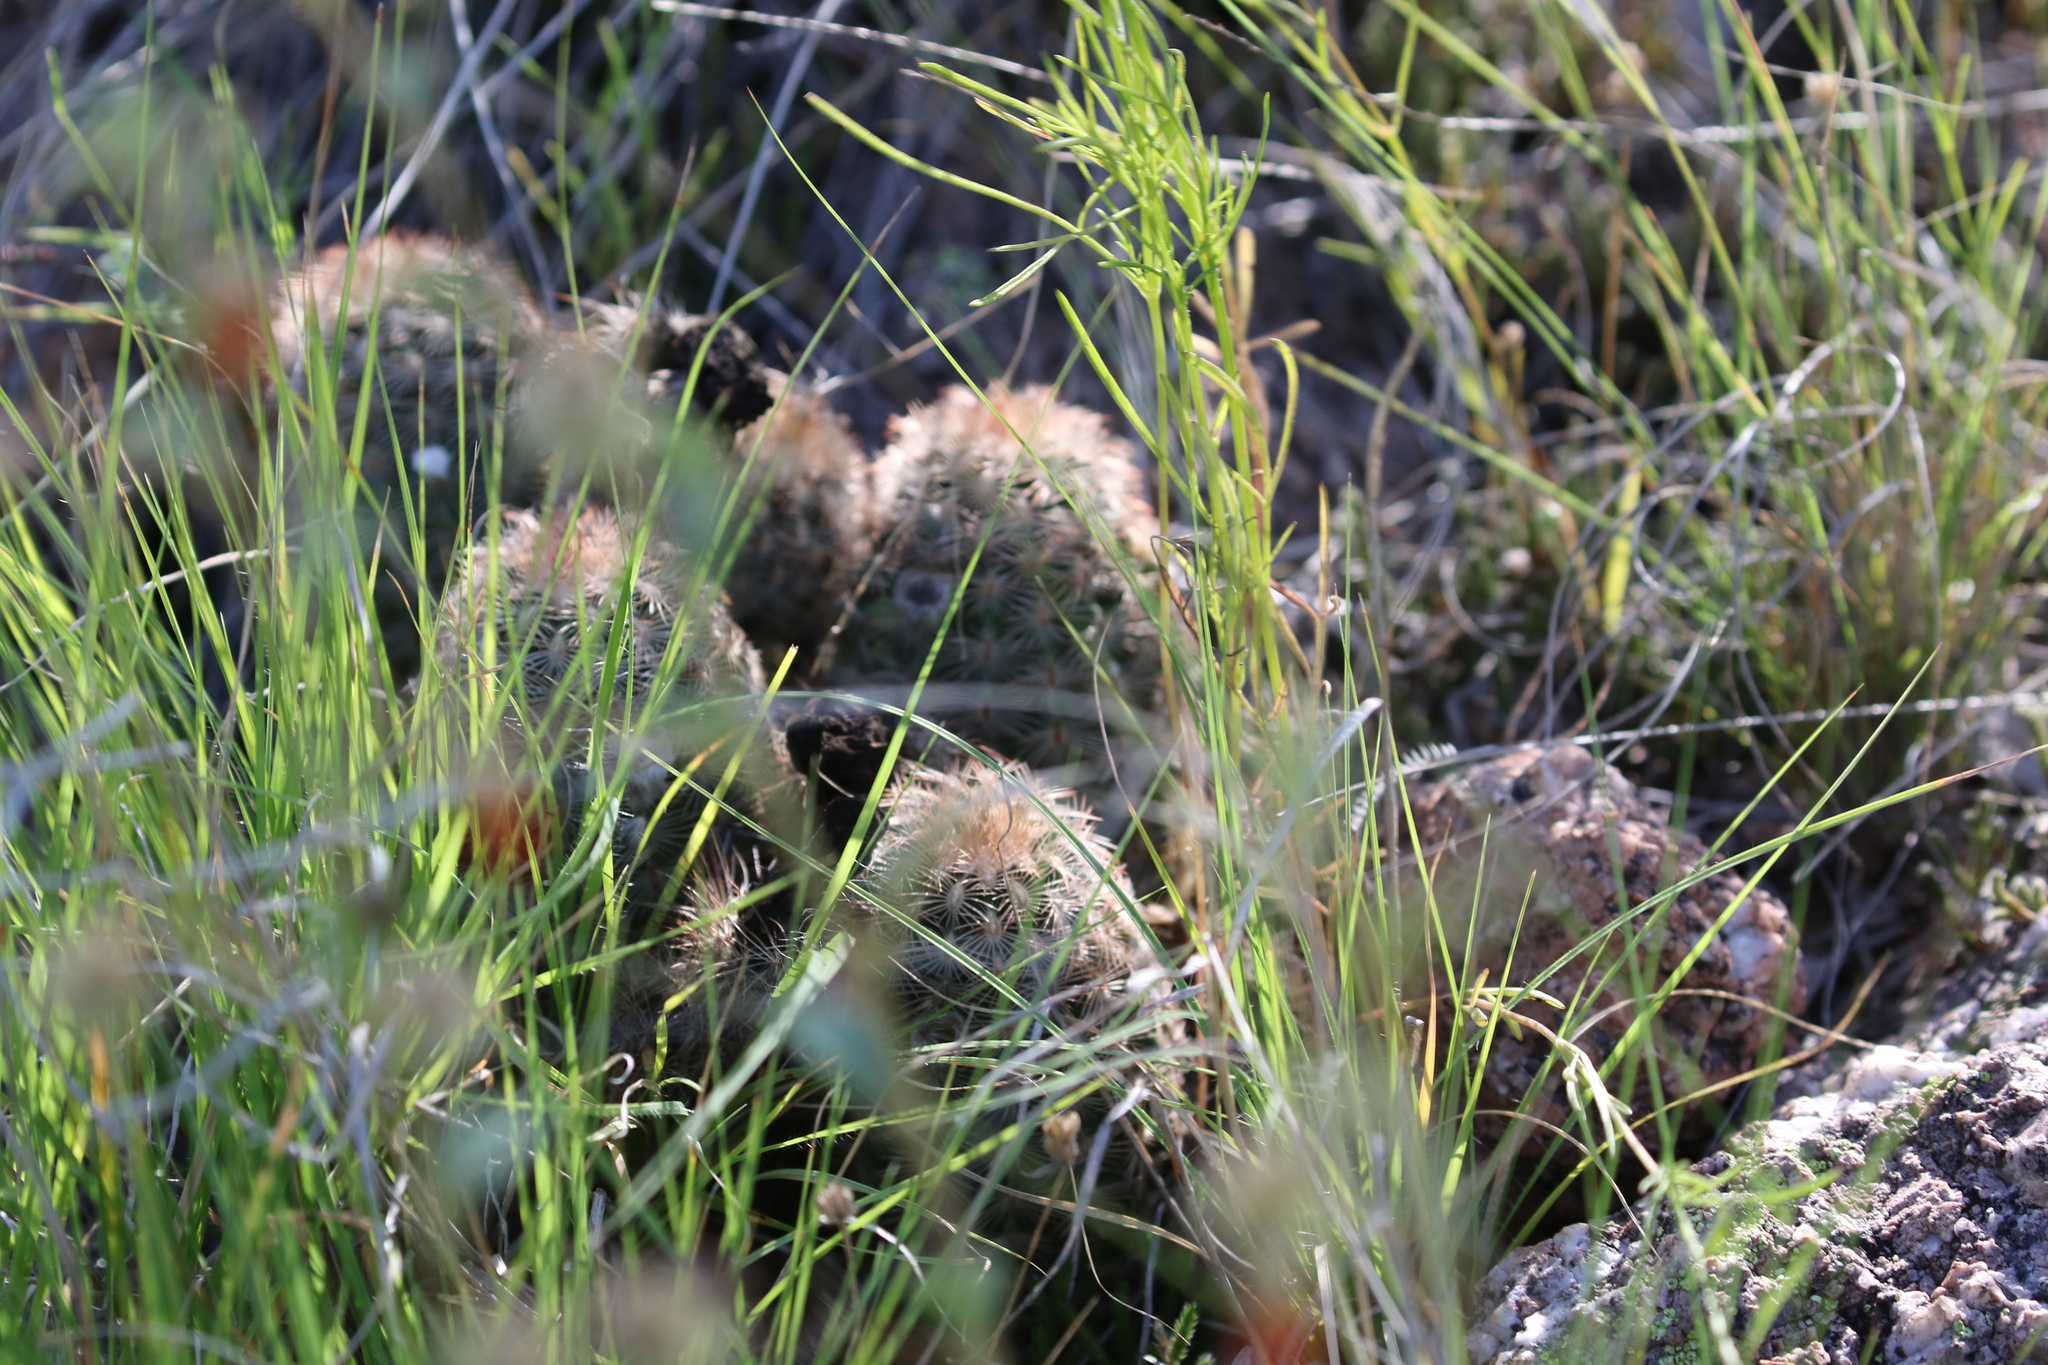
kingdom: Plantae
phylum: Tracheophyta
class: Magnoliopsida
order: Caryophyllales
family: Cactaceae
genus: Echinocereus
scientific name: Echinocereus reichenbachii
